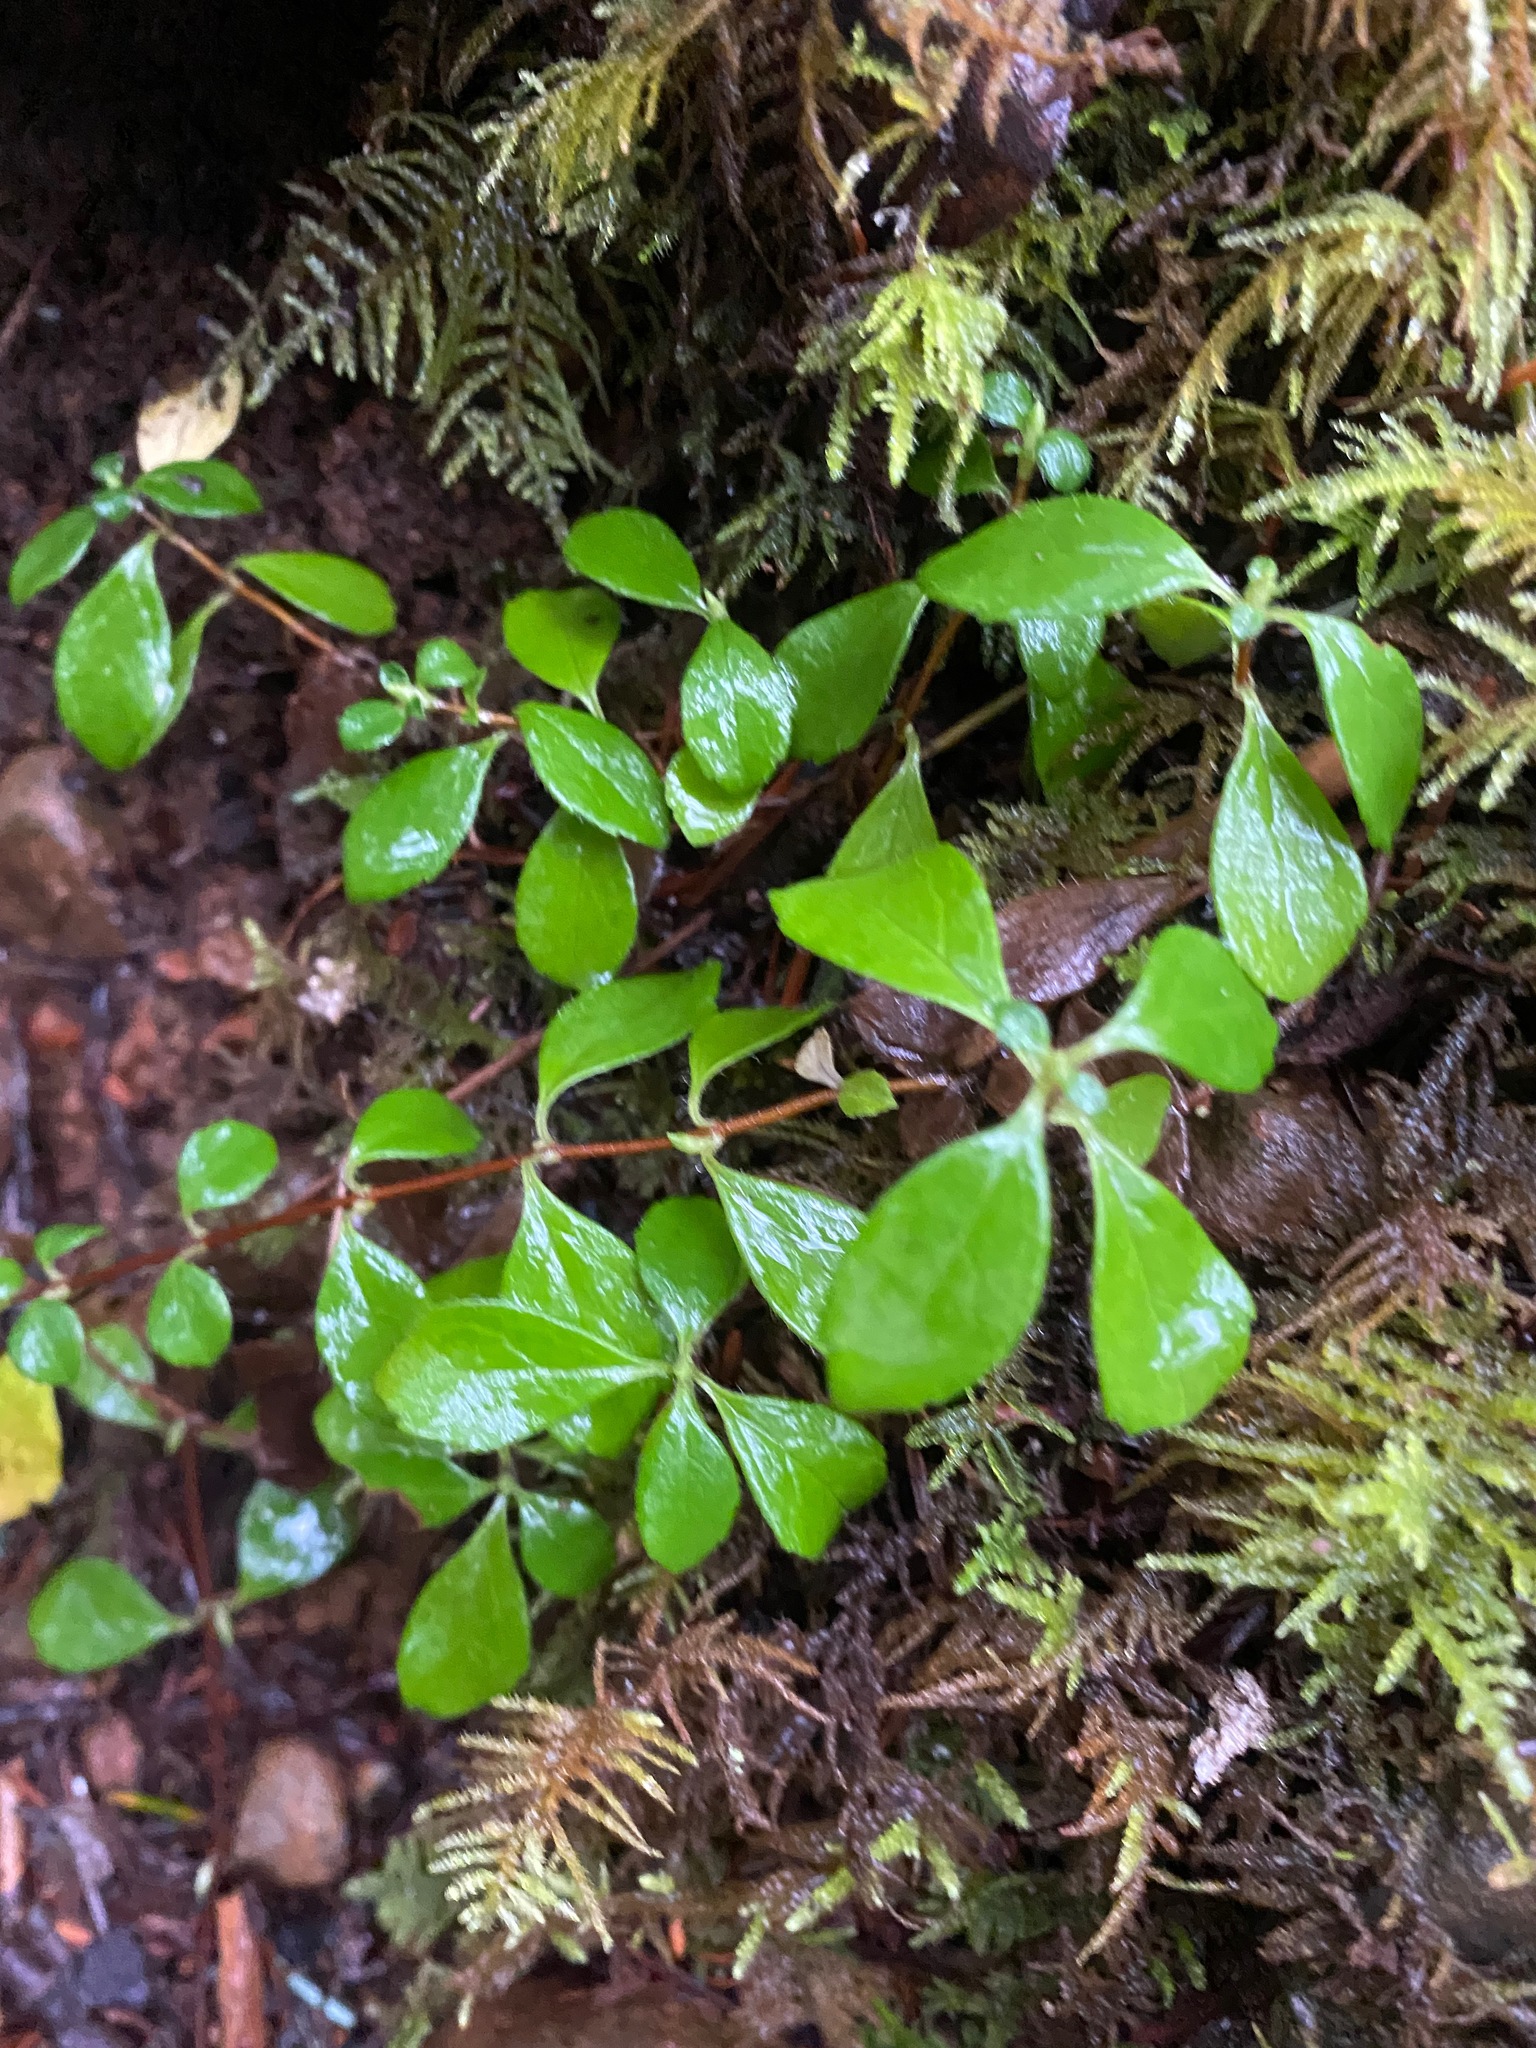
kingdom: Plantae
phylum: Tracheophyta
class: Magnoliopsida
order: Dipsacales
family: Caprifoliaceae
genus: Linnaea
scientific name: Linnaea borealis
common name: Twinflower
